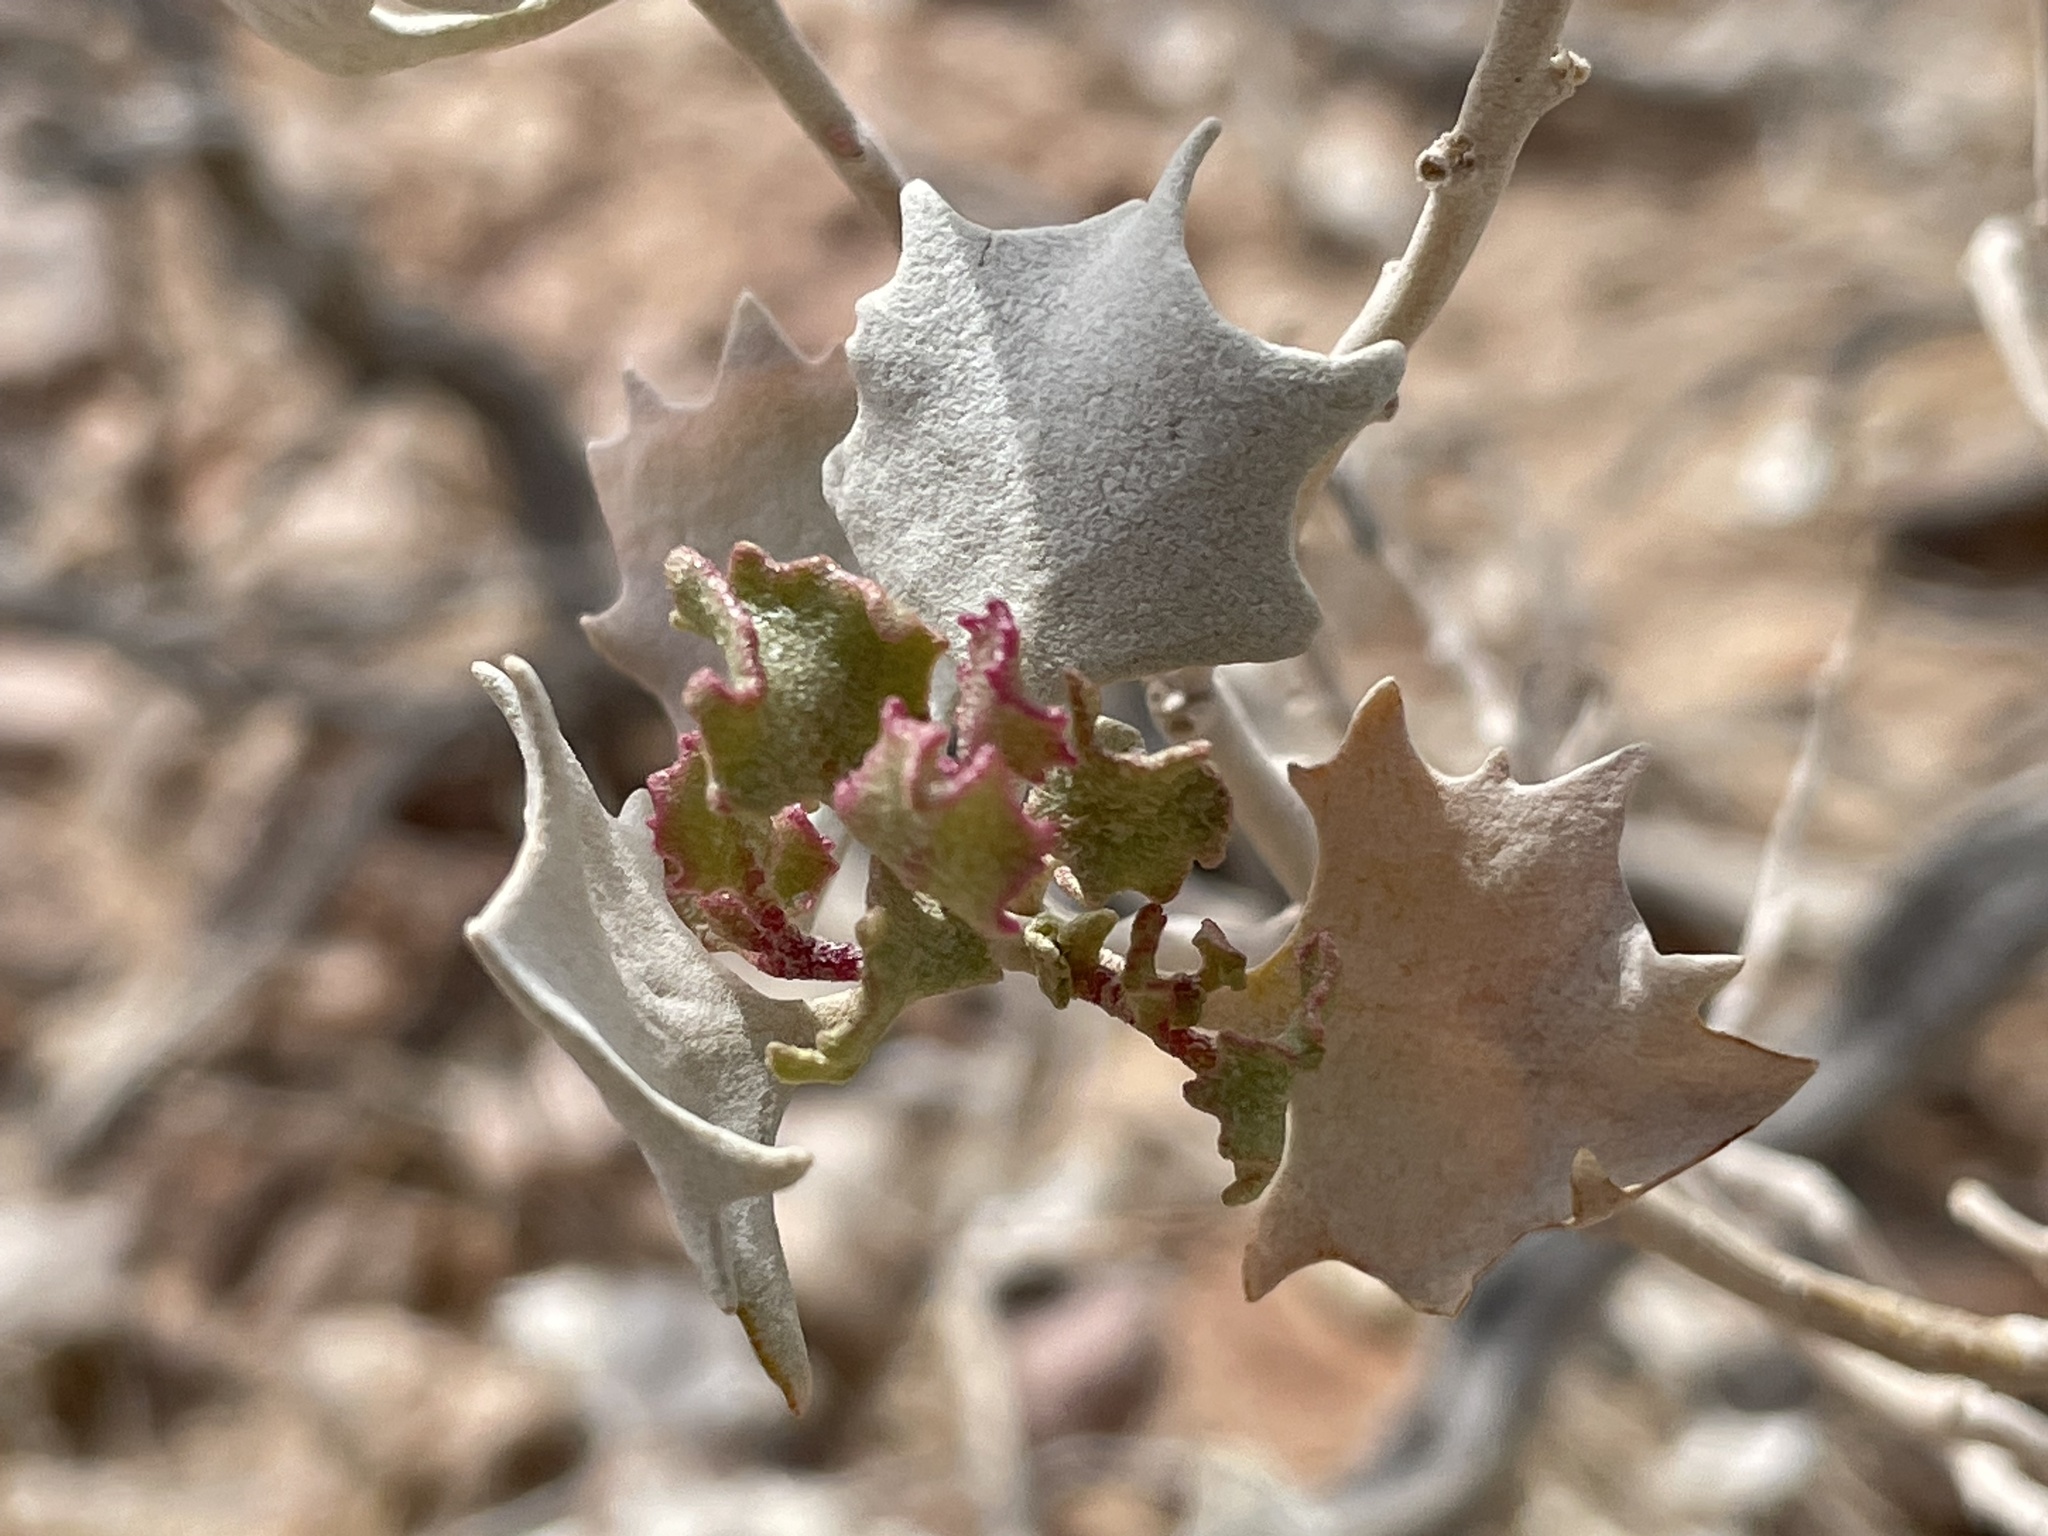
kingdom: Plantae
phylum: Tracheophyta
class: Magnoliopsida
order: Caryophyllales
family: Amaranthaceae
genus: Atriplex
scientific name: Atriplex hymenelytra
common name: Desert-holly
